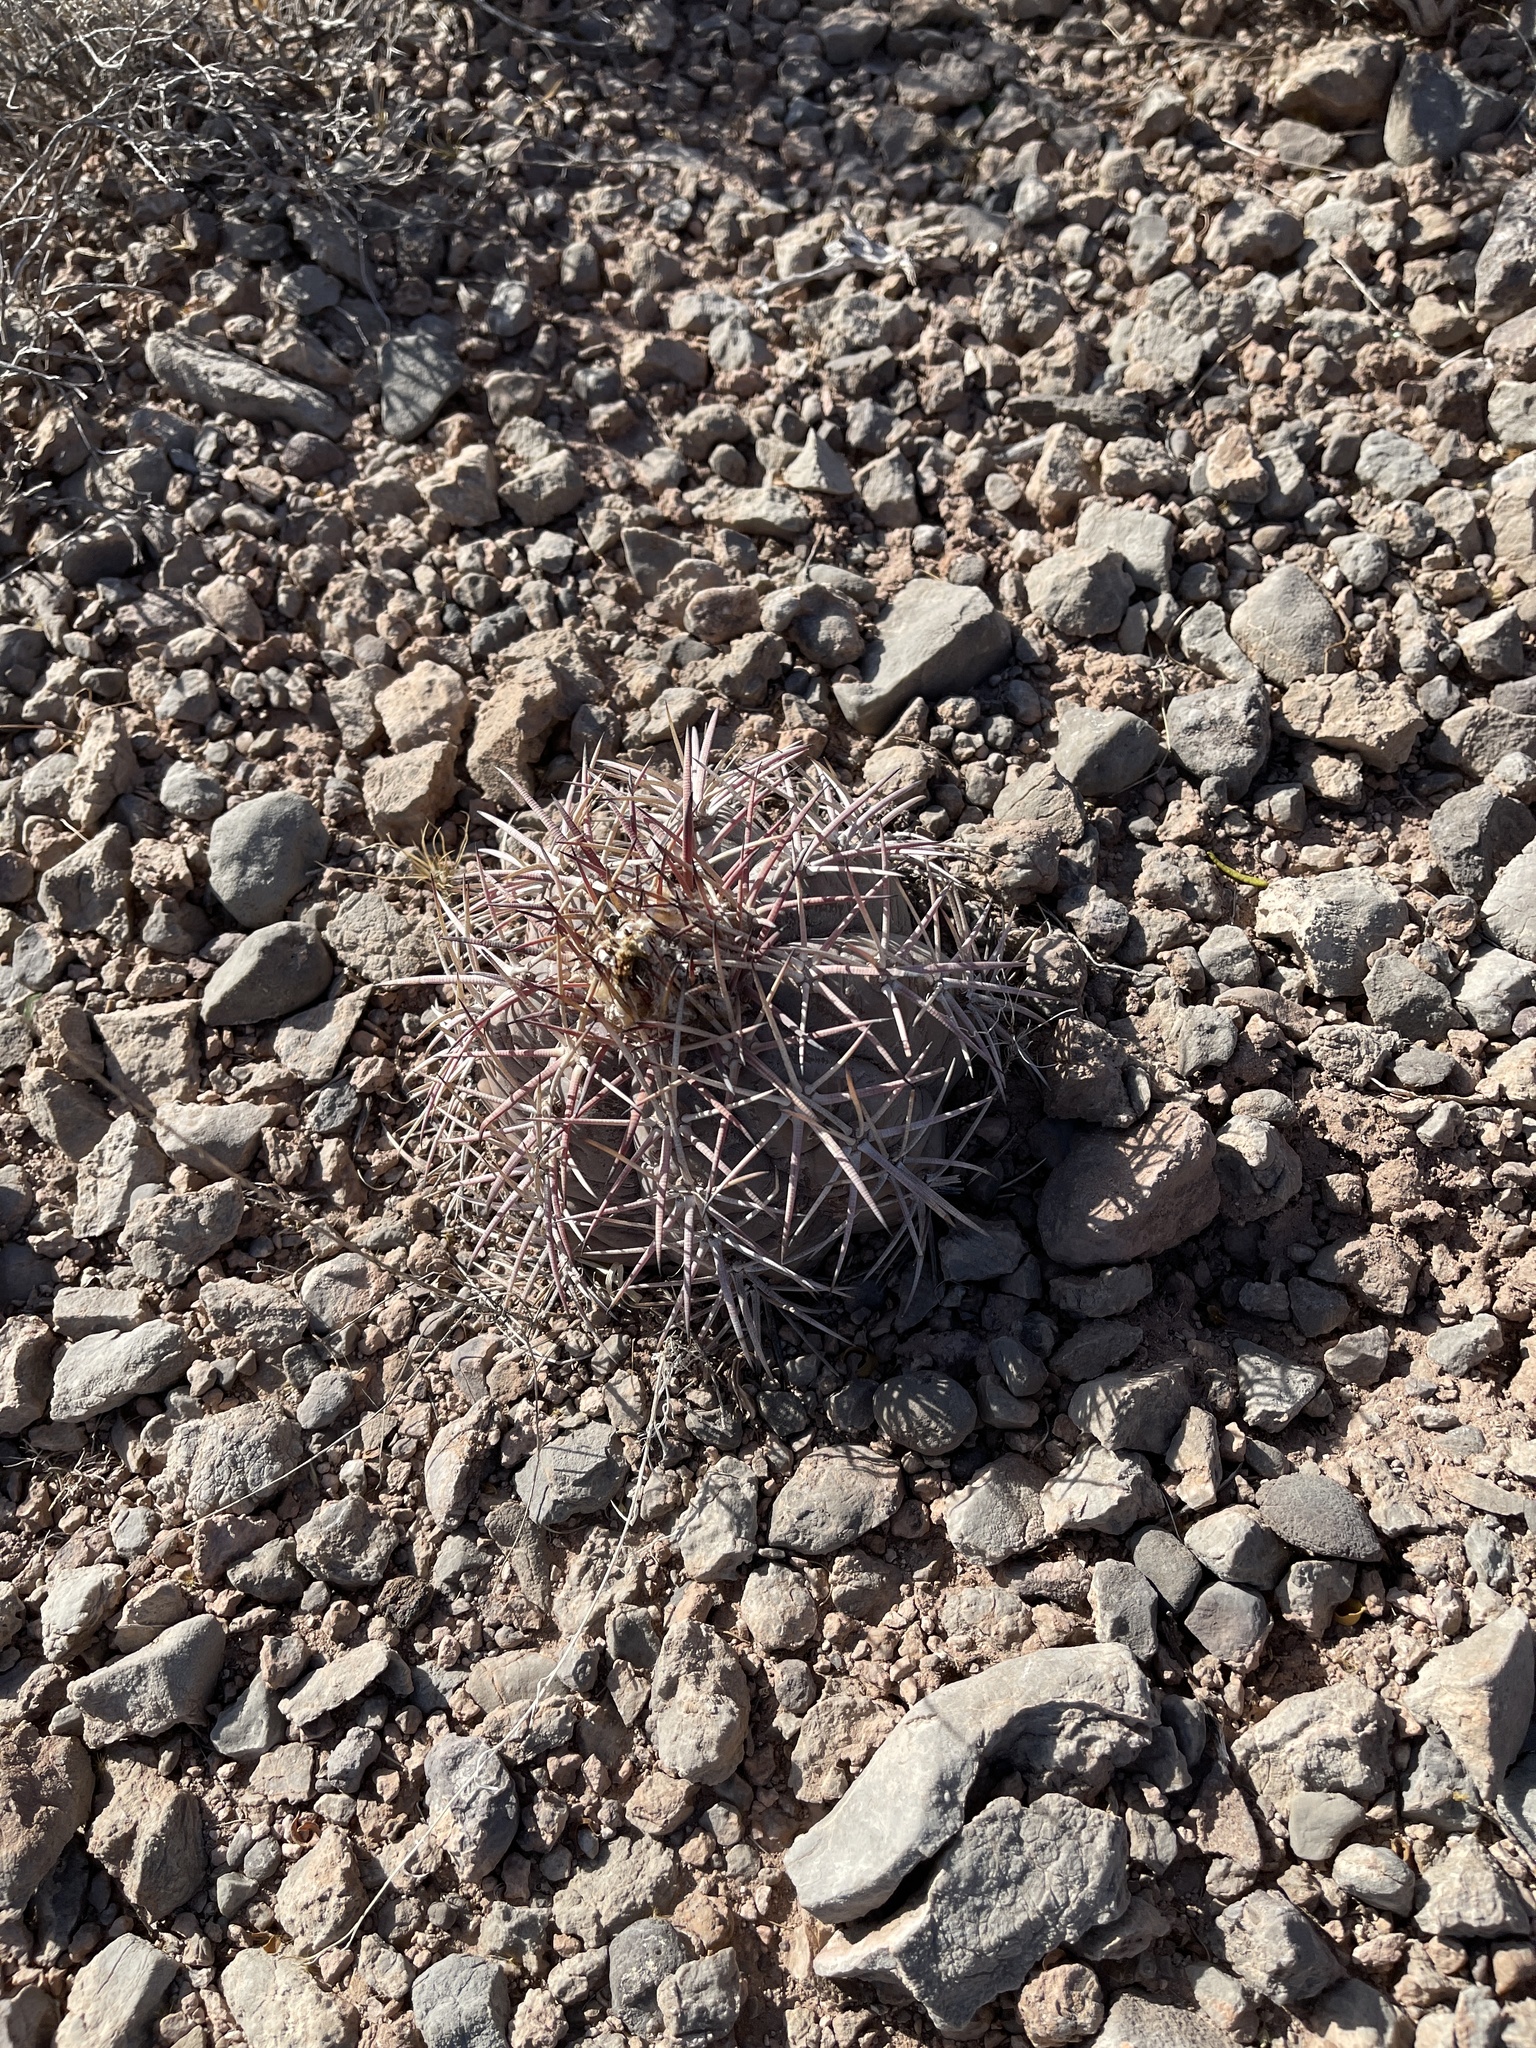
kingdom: Plantae
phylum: Tracheophyta
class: Magnoliopsida
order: Caryophyllales
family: Cactaceae
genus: Echinocactus
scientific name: Echinocactus horizonthalonius
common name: Devilshead
